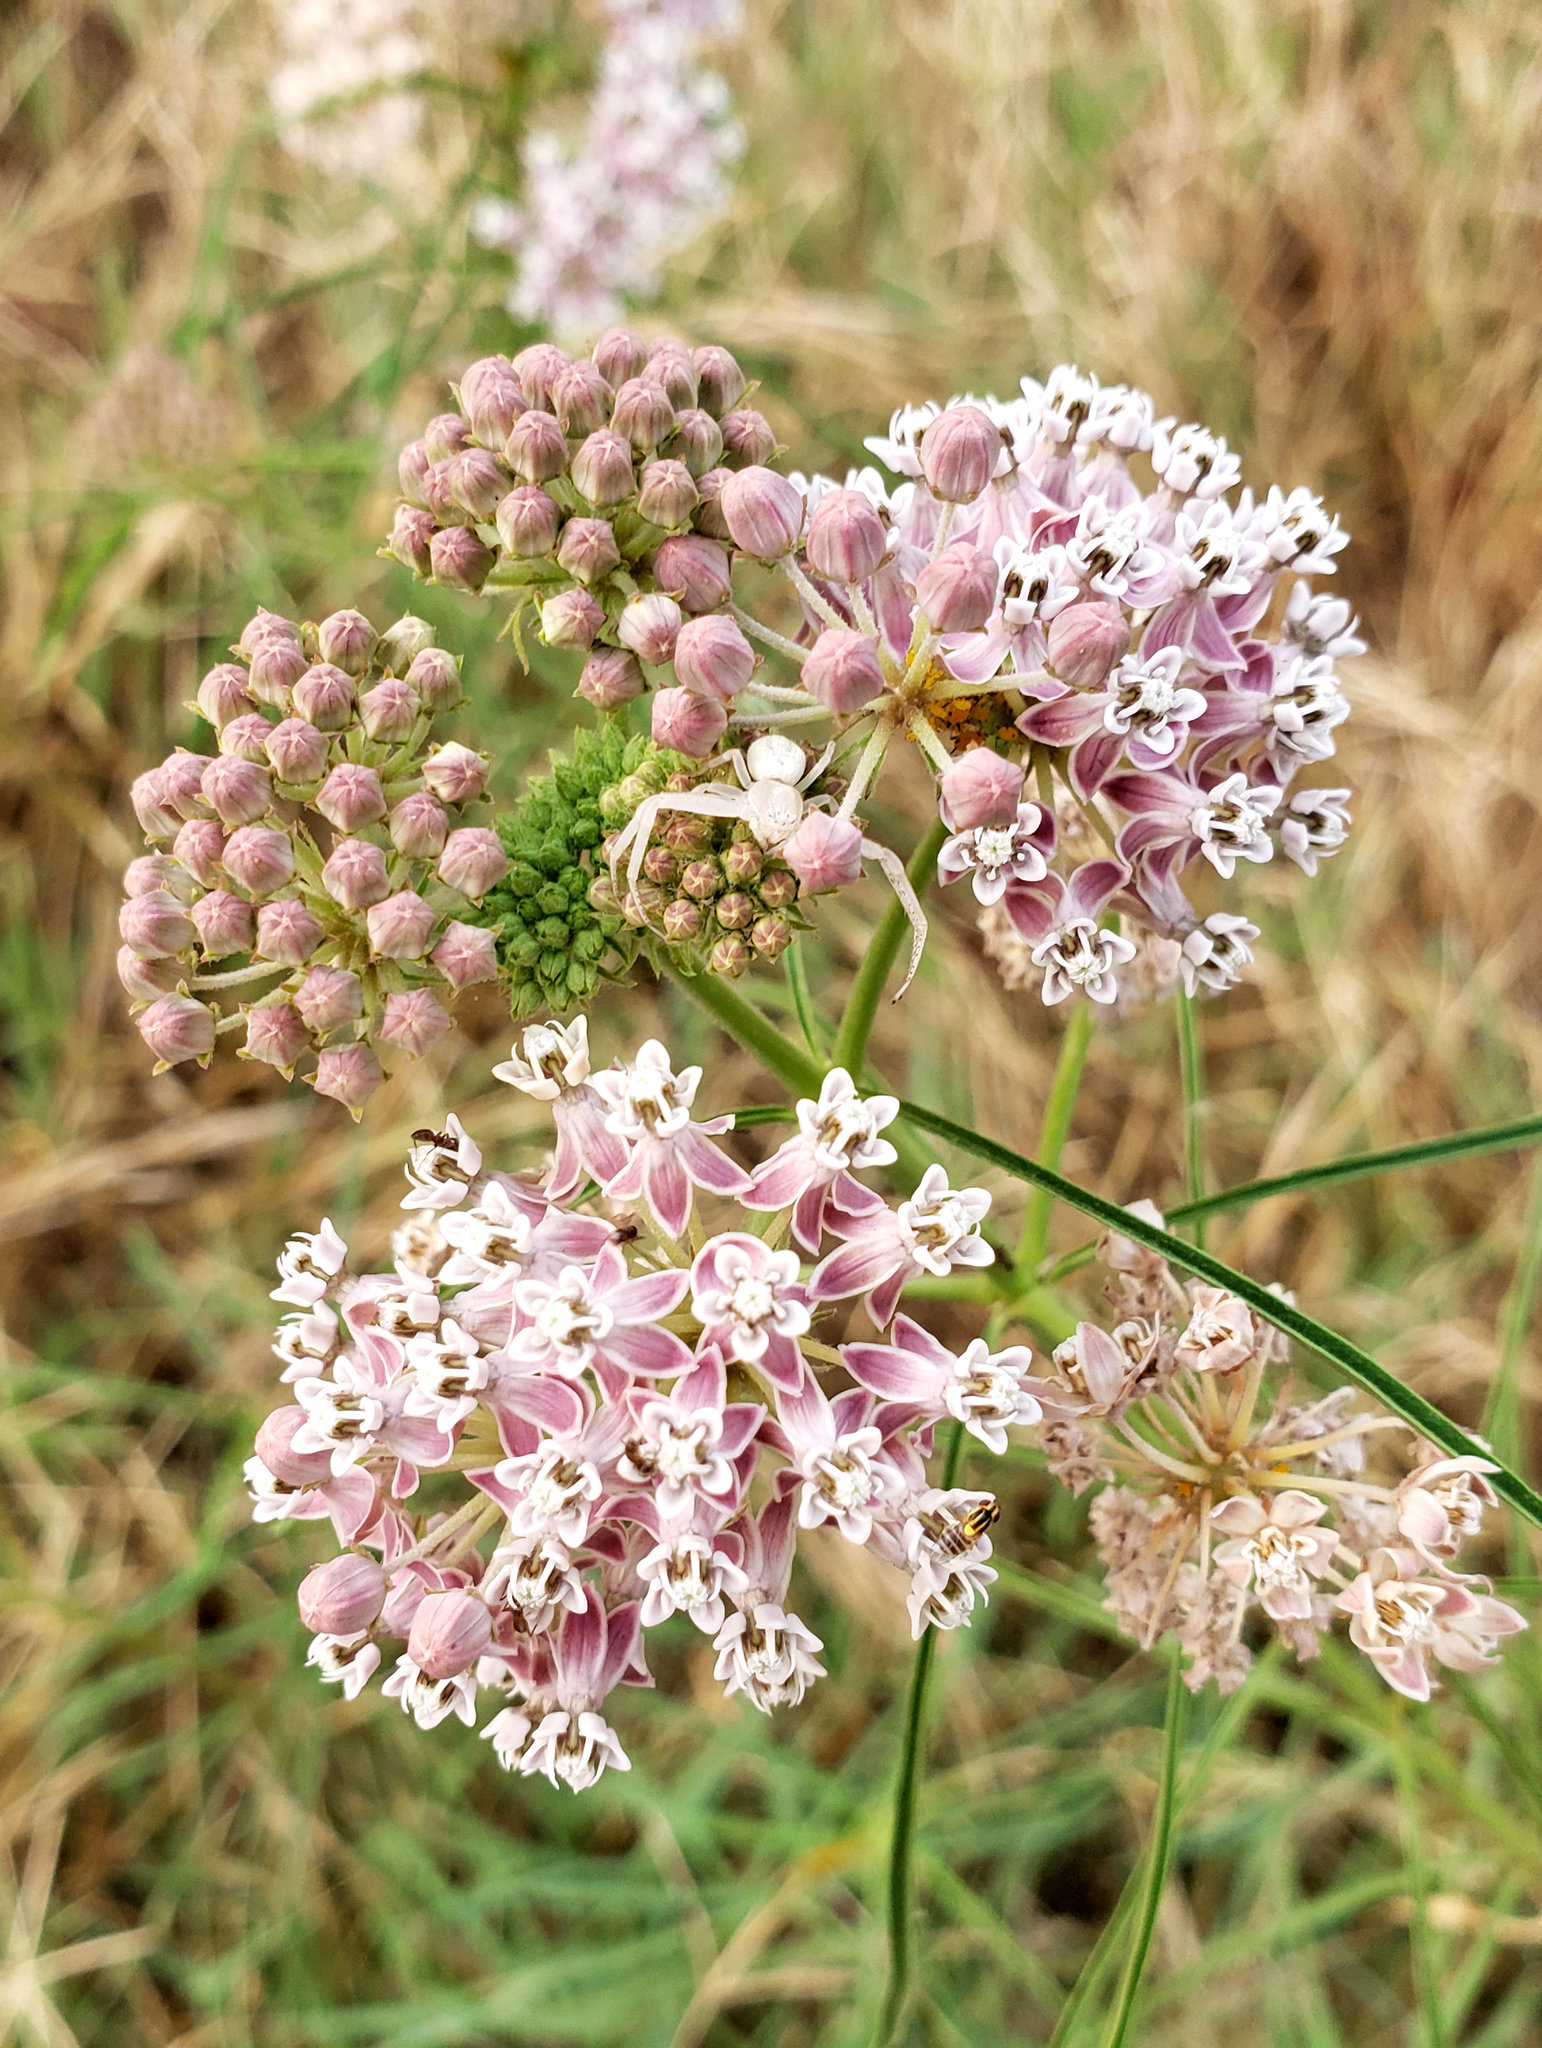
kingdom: Plantae
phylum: Tracheophyta
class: Magnoliopsida
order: Gentianales
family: Apocynaceae
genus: Asclepias
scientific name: Asclepias fascicularis
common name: Mexican milkweed
